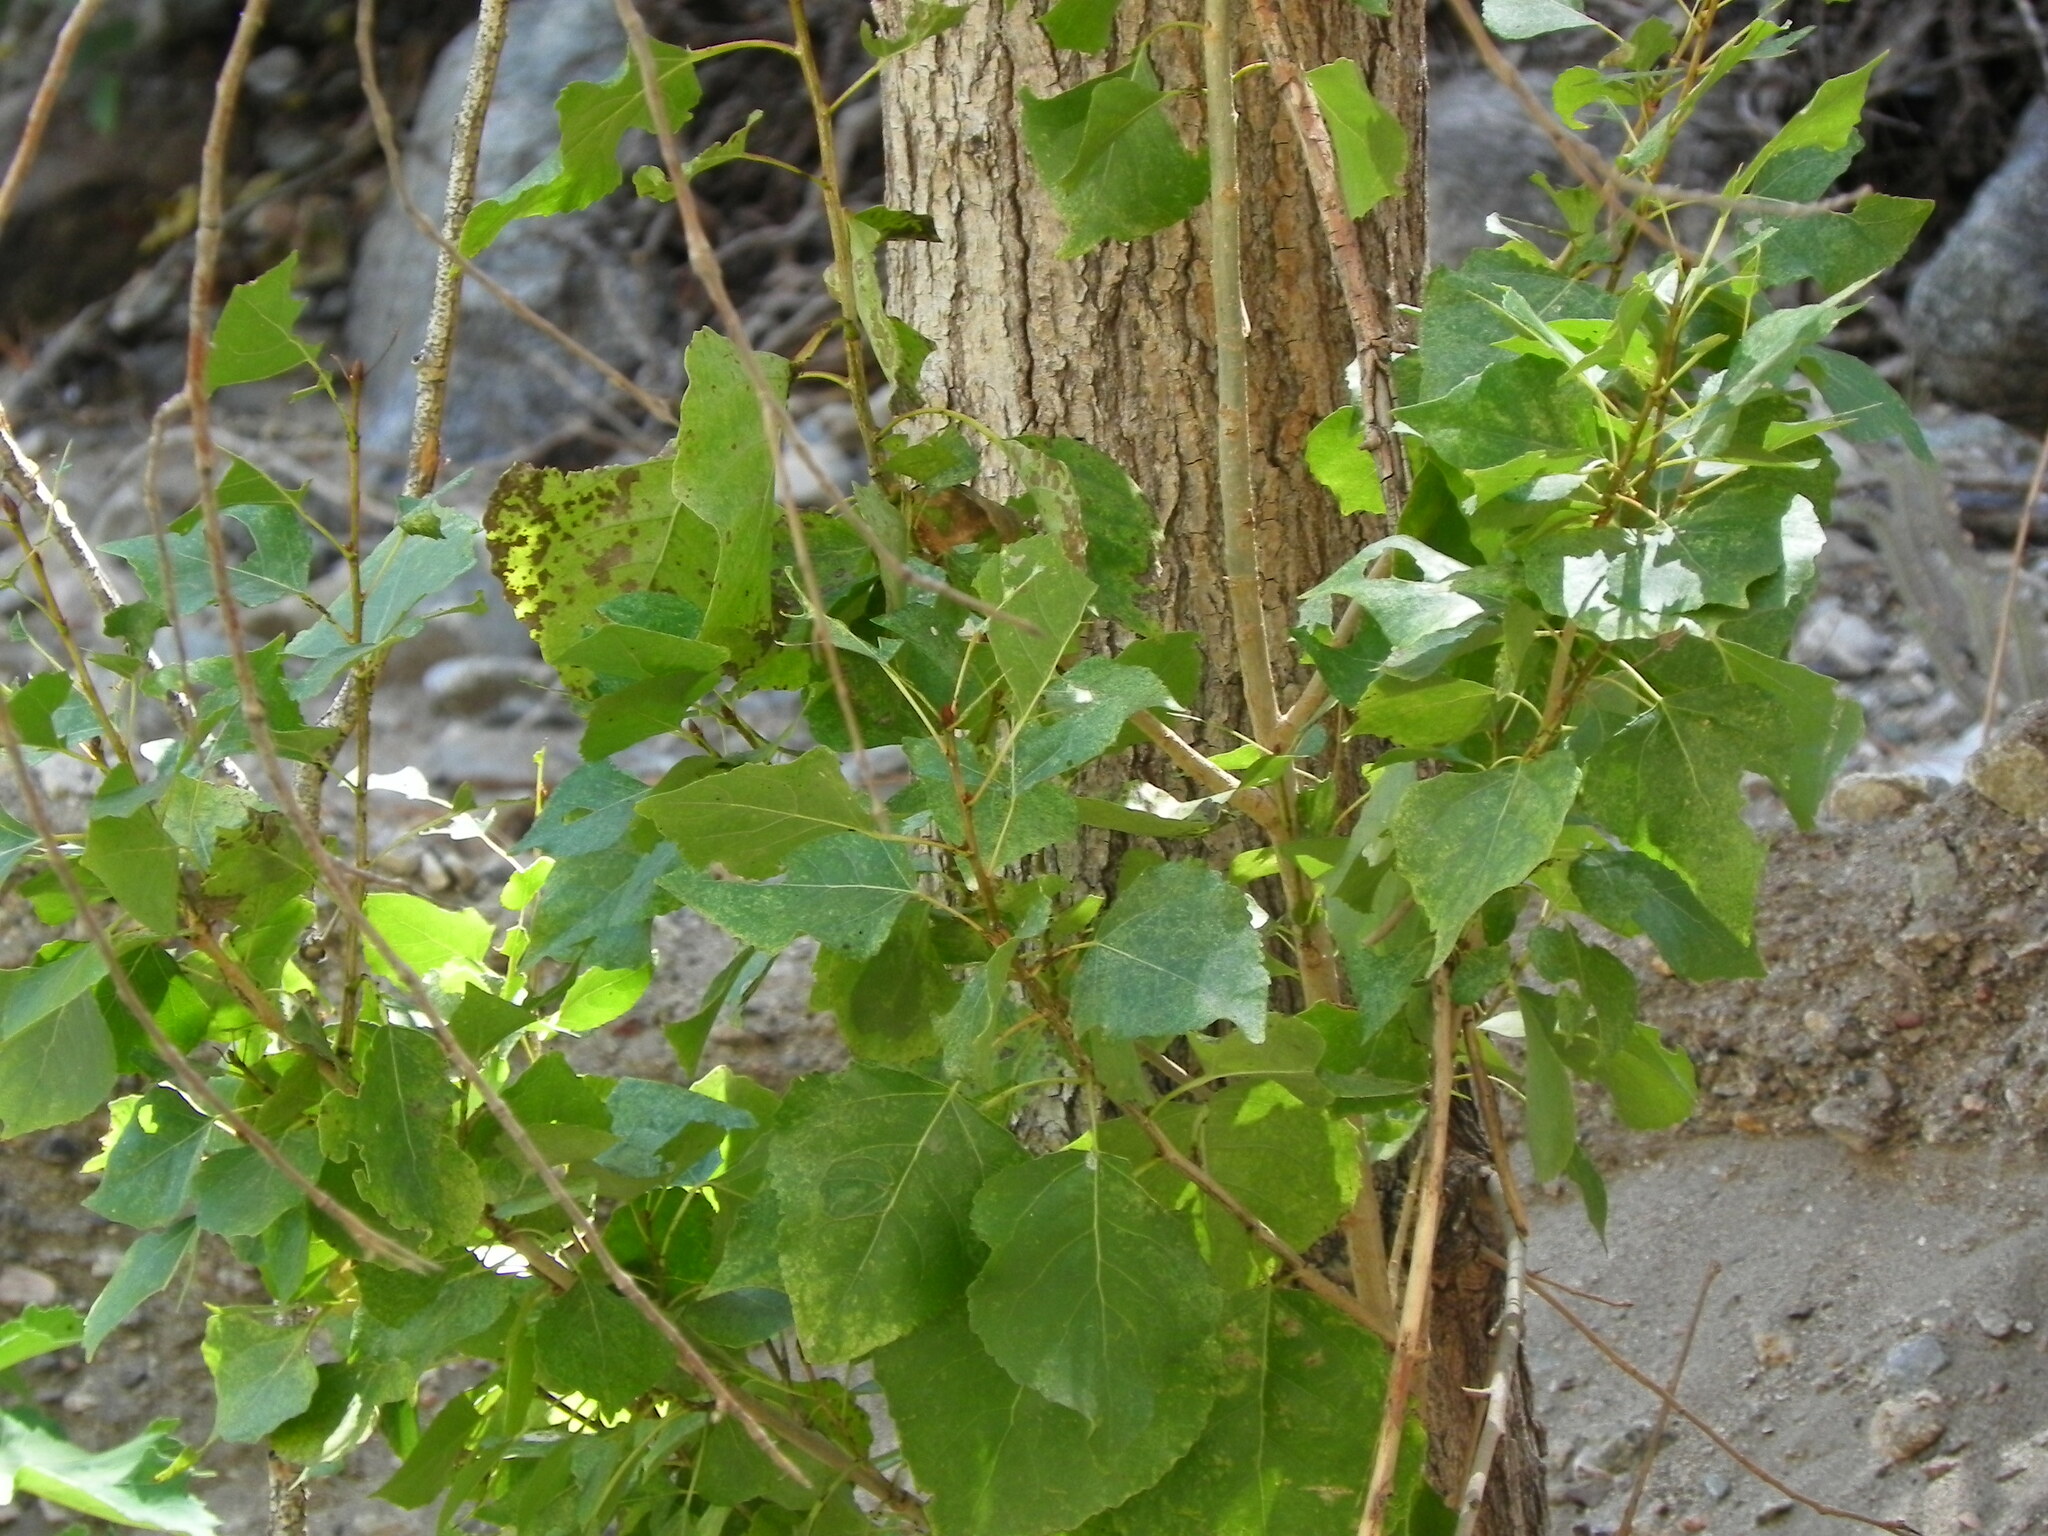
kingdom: Plantae
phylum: Tracheophyta
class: Magnoliopsida
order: Malpighiales
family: Salicaceae
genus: Populus
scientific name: Populus fremontii
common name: Fremont's cottonwood
